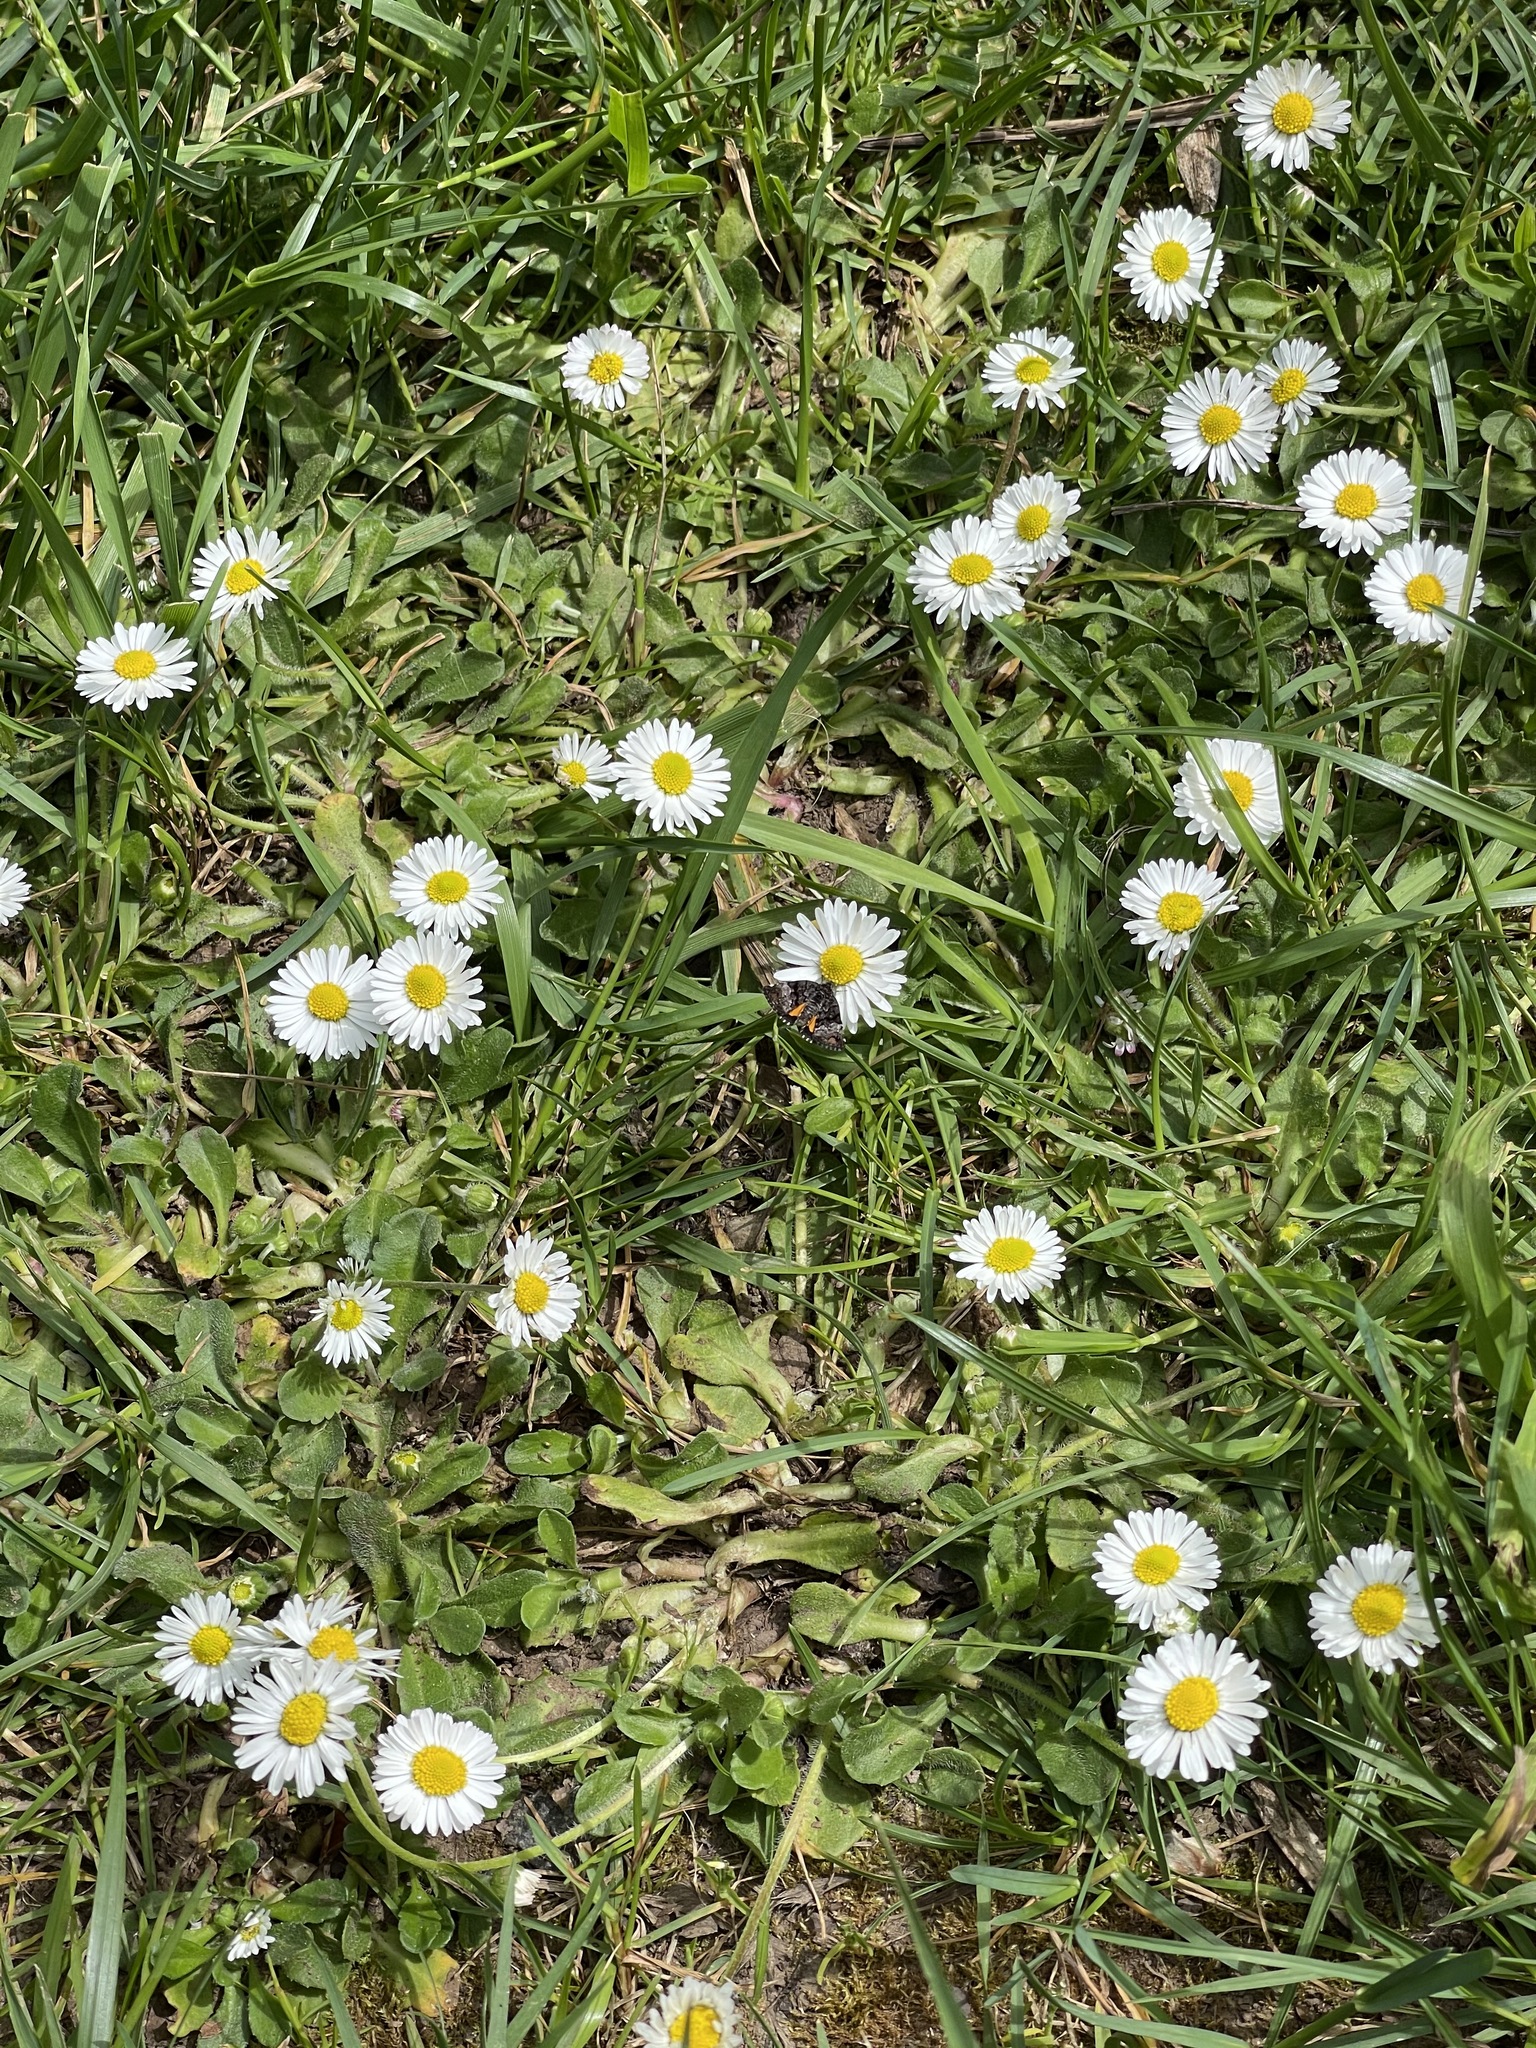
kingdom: Plantae
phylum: Tracheophyta
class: Magnoliopsida
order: Asterales
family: Asteraceae
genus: Bellis
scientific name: Bellis perennis
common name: Lawndaisy
